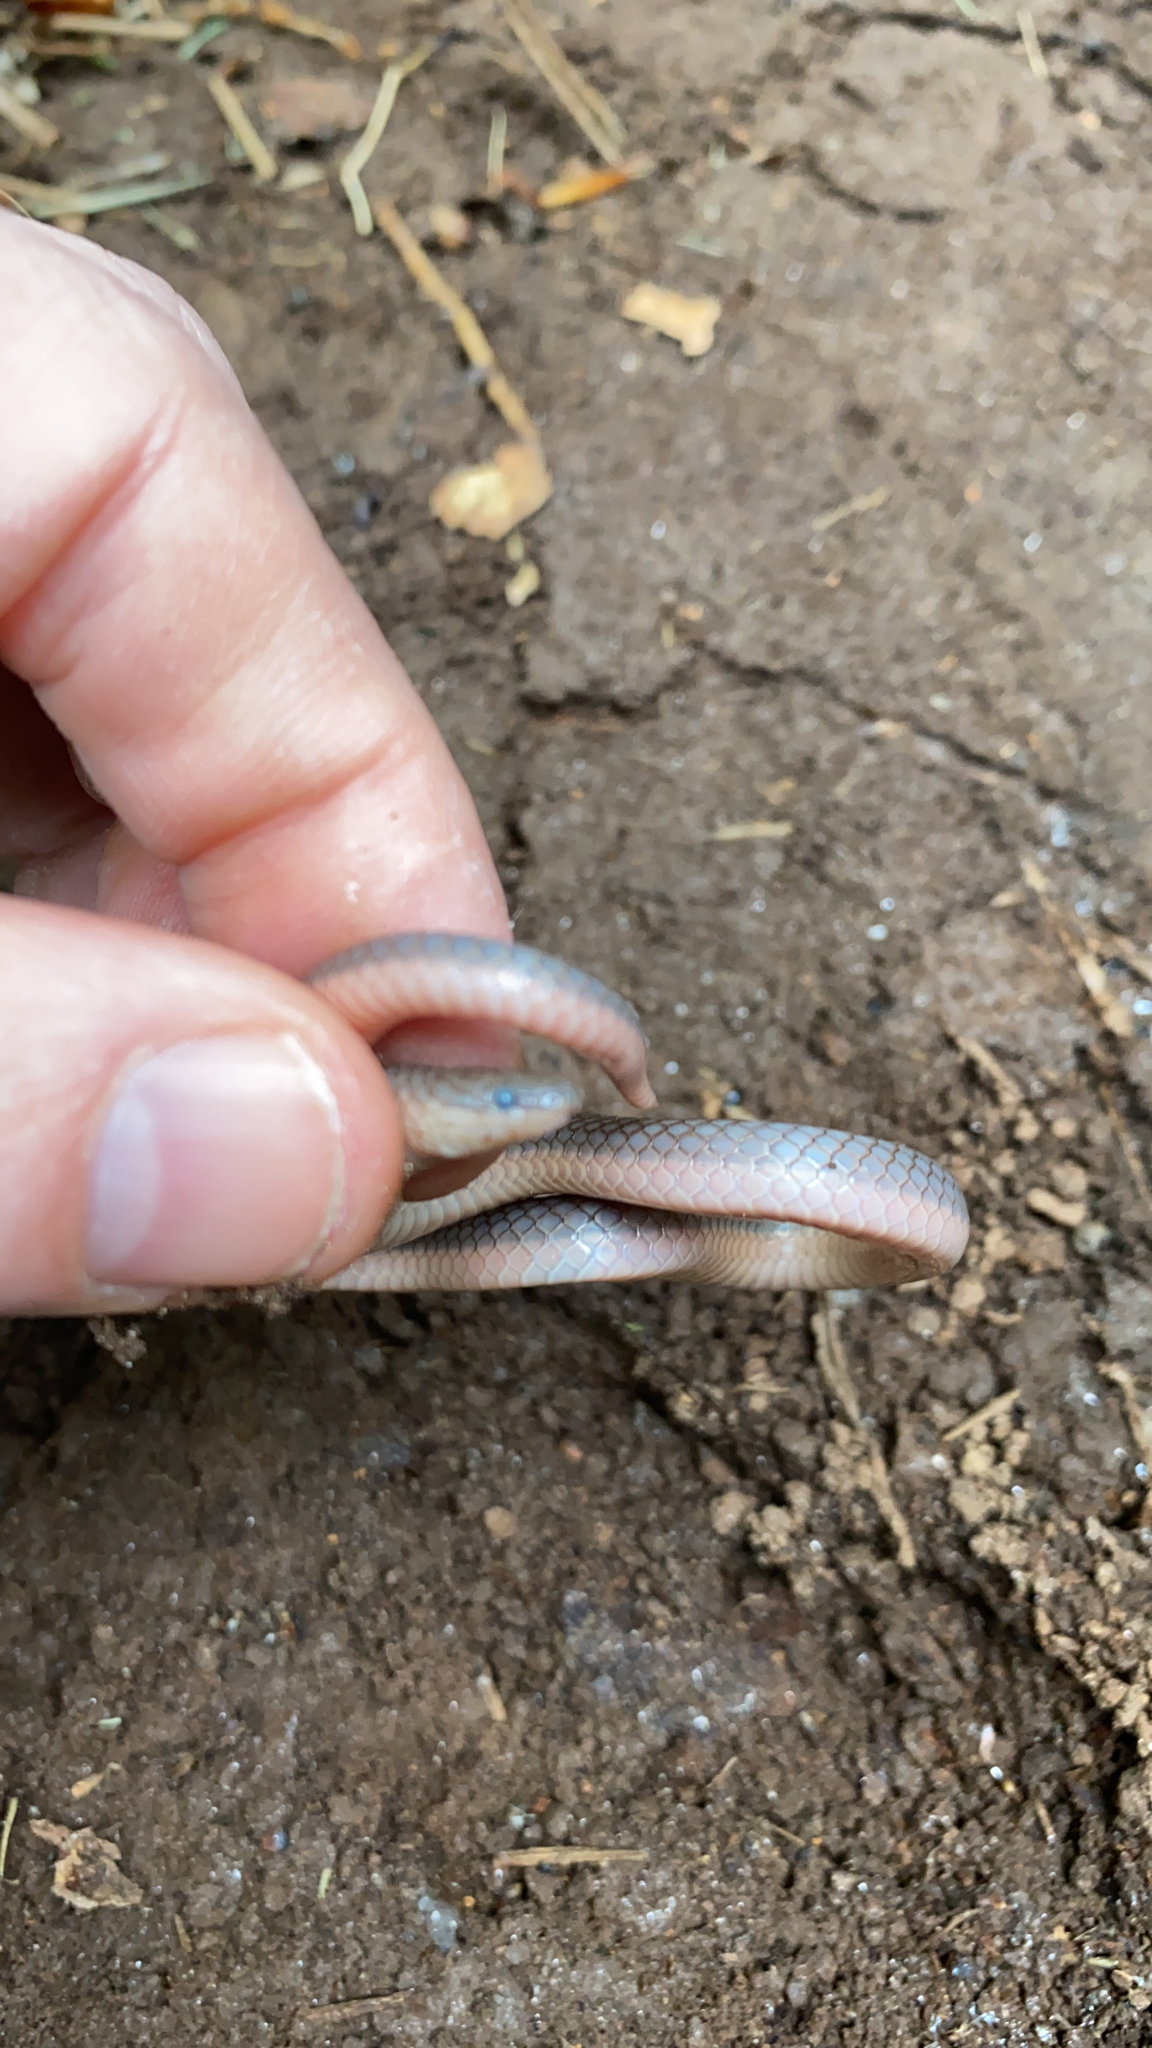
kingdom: Animalia
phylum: Chordata
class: Squamata
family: Colubridae
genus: Carphophis
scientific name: Carphophis amoenus
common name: Eastern worm snake
